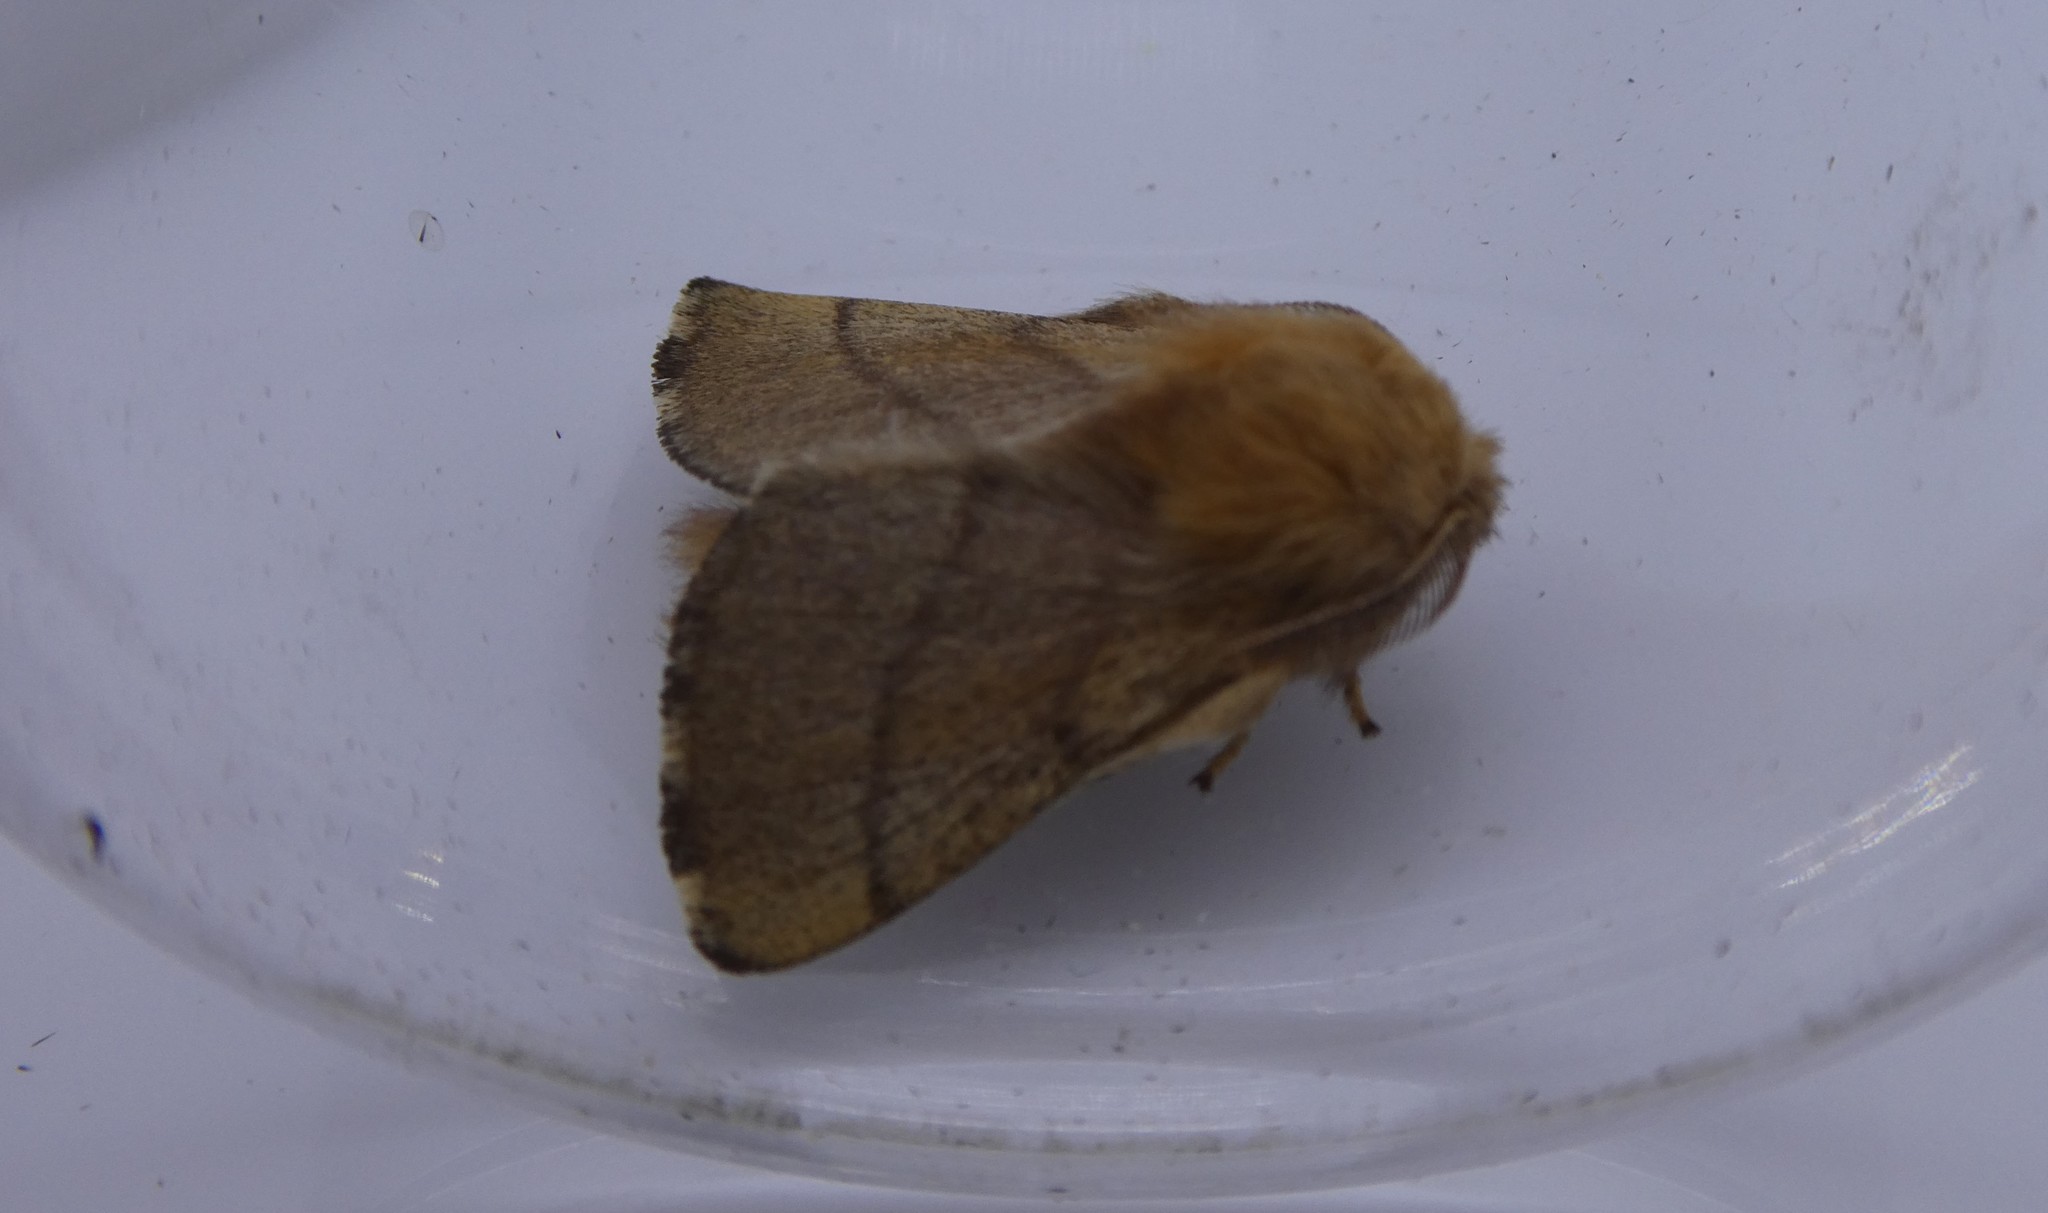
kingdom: Animalia
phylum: Arthropoda
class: Insecta
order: Lepidoptera
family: Lasiocampidae
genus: Malacosoma
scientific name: Malacosoma disstria
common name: Forest tent caterpillar
